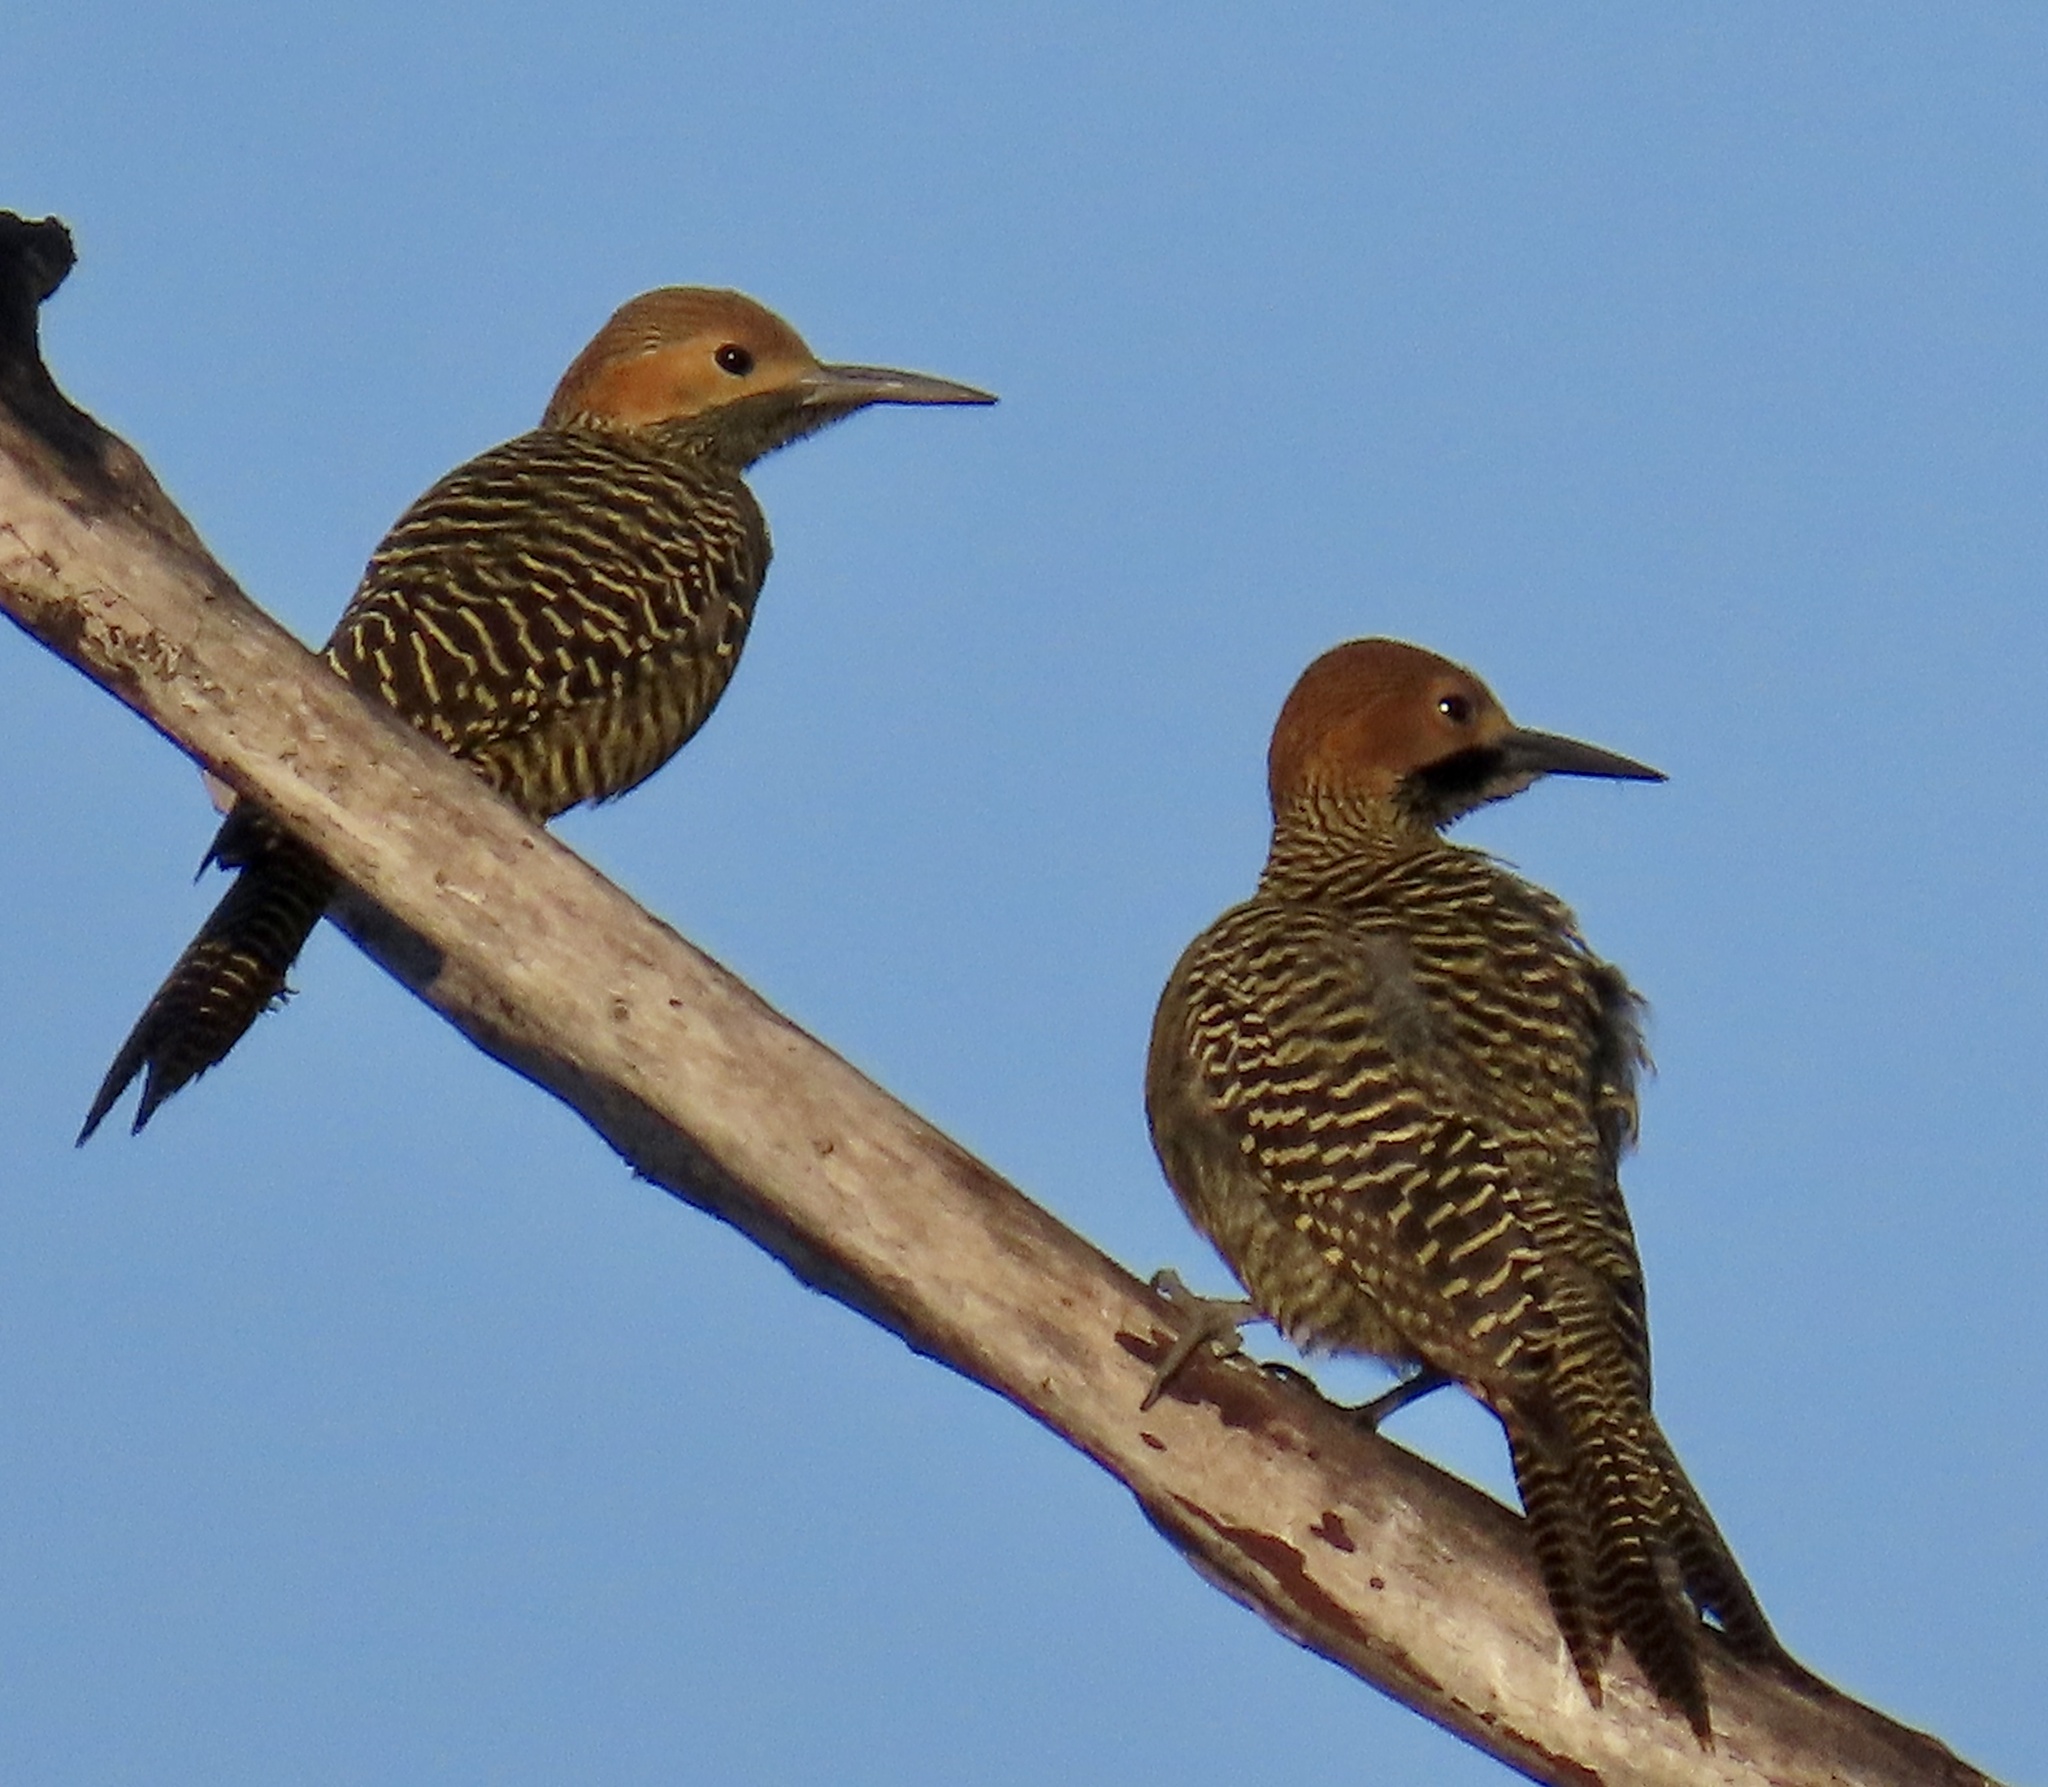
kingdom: Animalia
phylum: Chordata
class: Aves
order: Piciformes
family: Picidae
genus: Colaptes
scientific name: Colaptes fernandinae
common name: Fernandina's flicker
